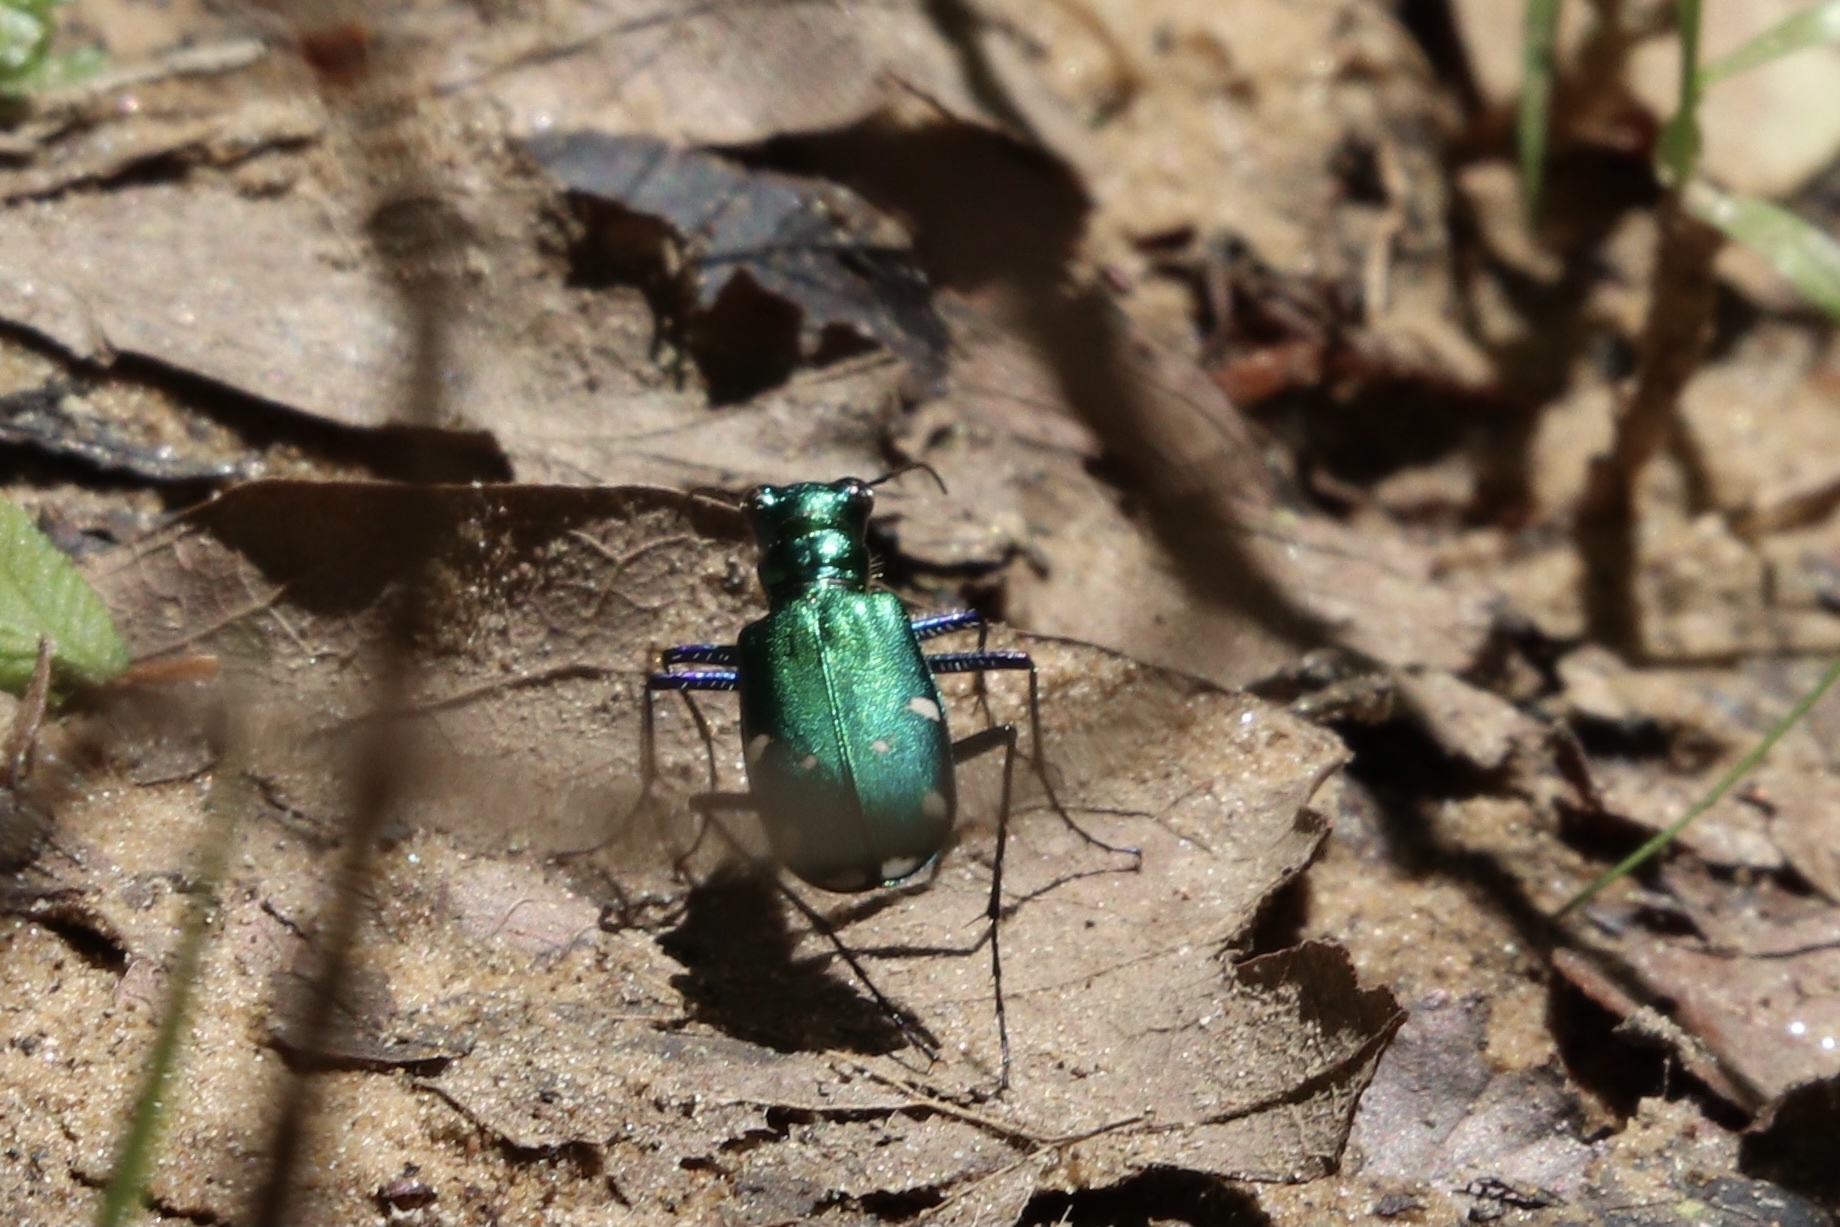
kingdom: Animalia
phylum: Arthropoda
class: Insecta
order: Coleoptera
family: Carabidae
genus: Cicindela
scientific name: Cicindela sexguttata
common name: Six-spotted tiger beetle
